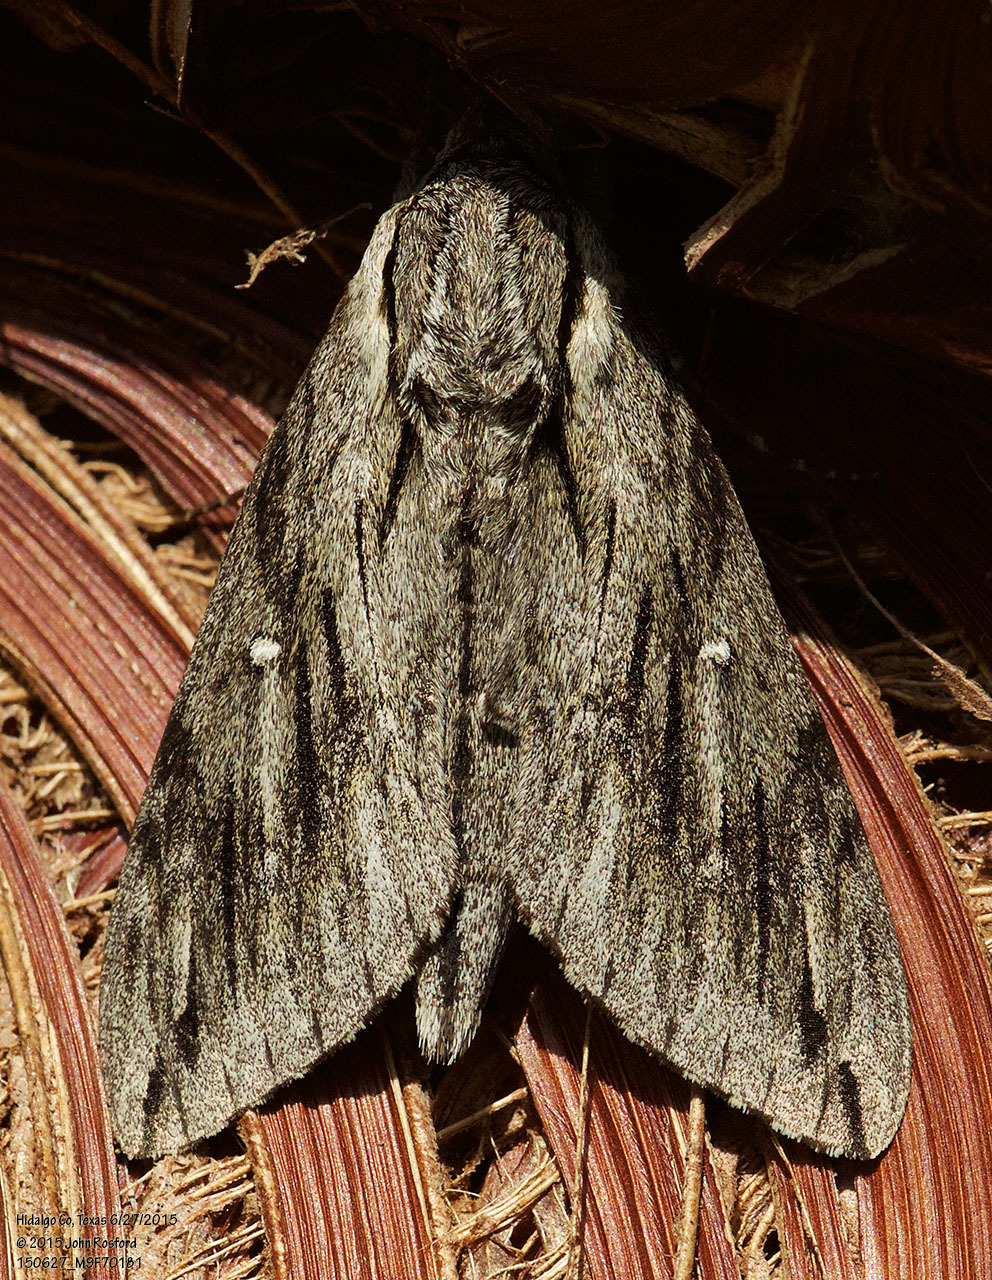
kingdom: Animalia
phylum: Arthropoda
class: Insecta
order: Lepidoptera
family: Sphingidae
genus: Paratrea
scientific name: Paratrea plebeja
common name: Plebian sphinx
